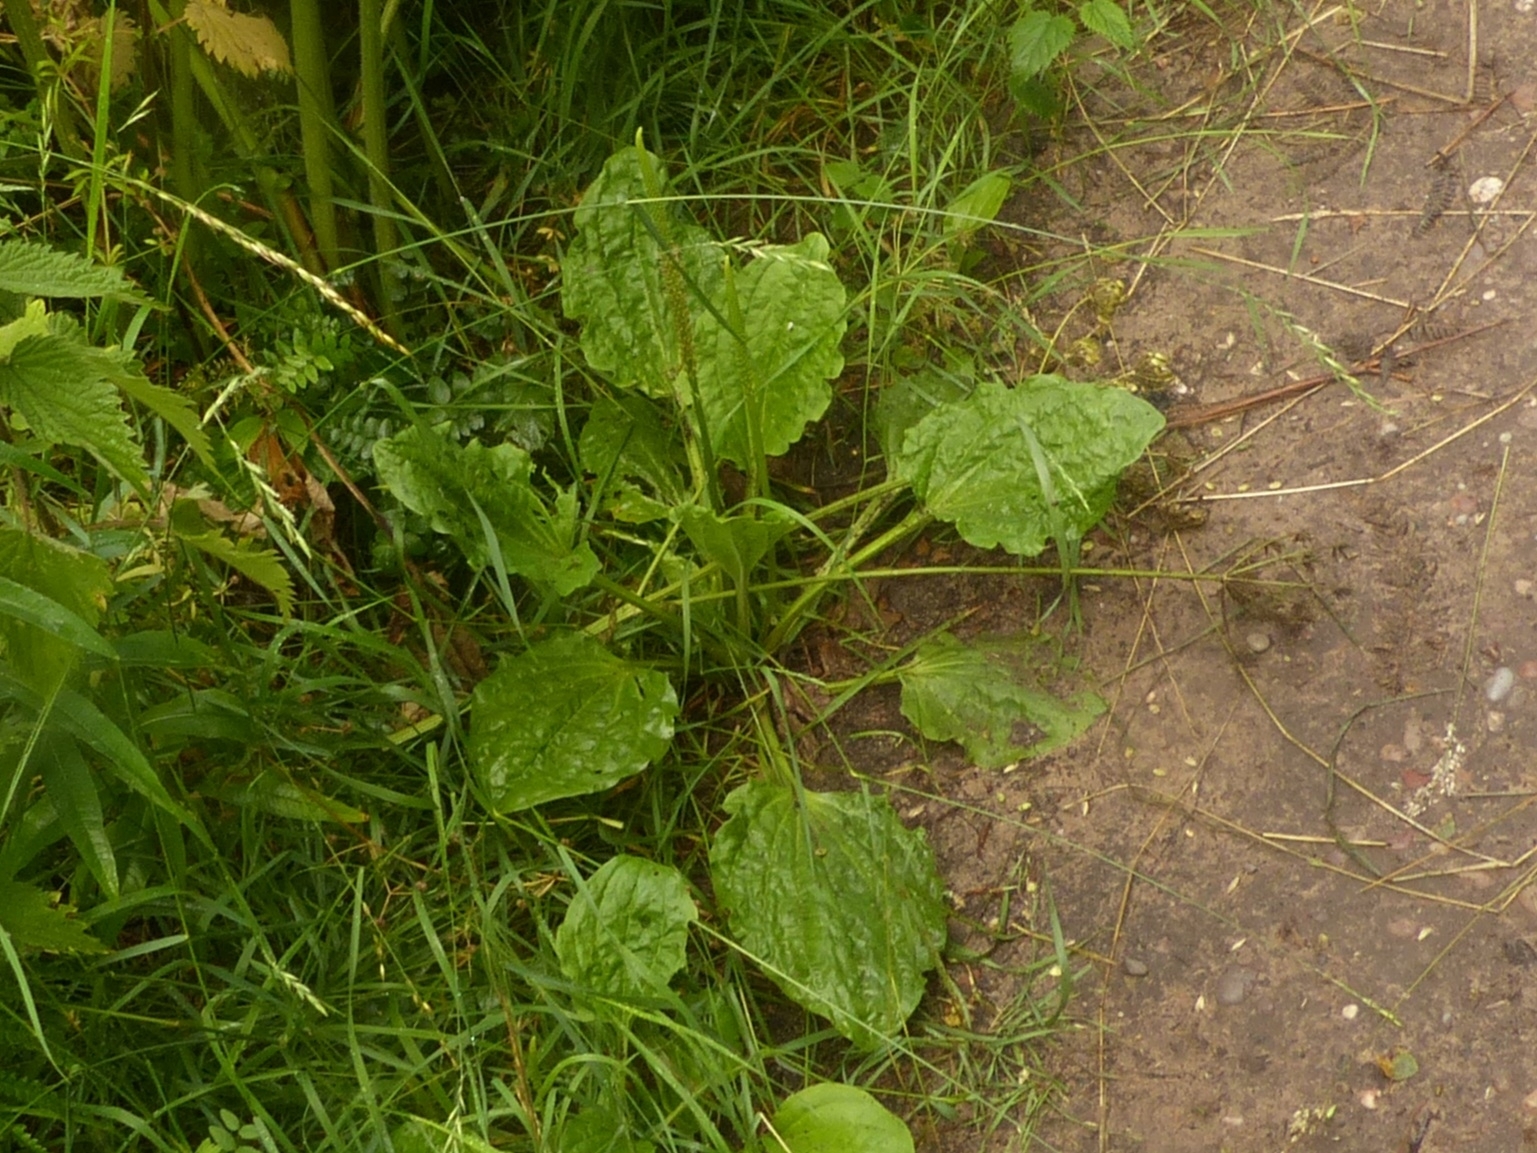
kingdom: Plantae
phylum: Tracheophyta
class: Magnoliopsida
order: Lamiales
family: Plantaginaceae
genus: Plantago
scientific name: Plantago major
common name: Common plantain
